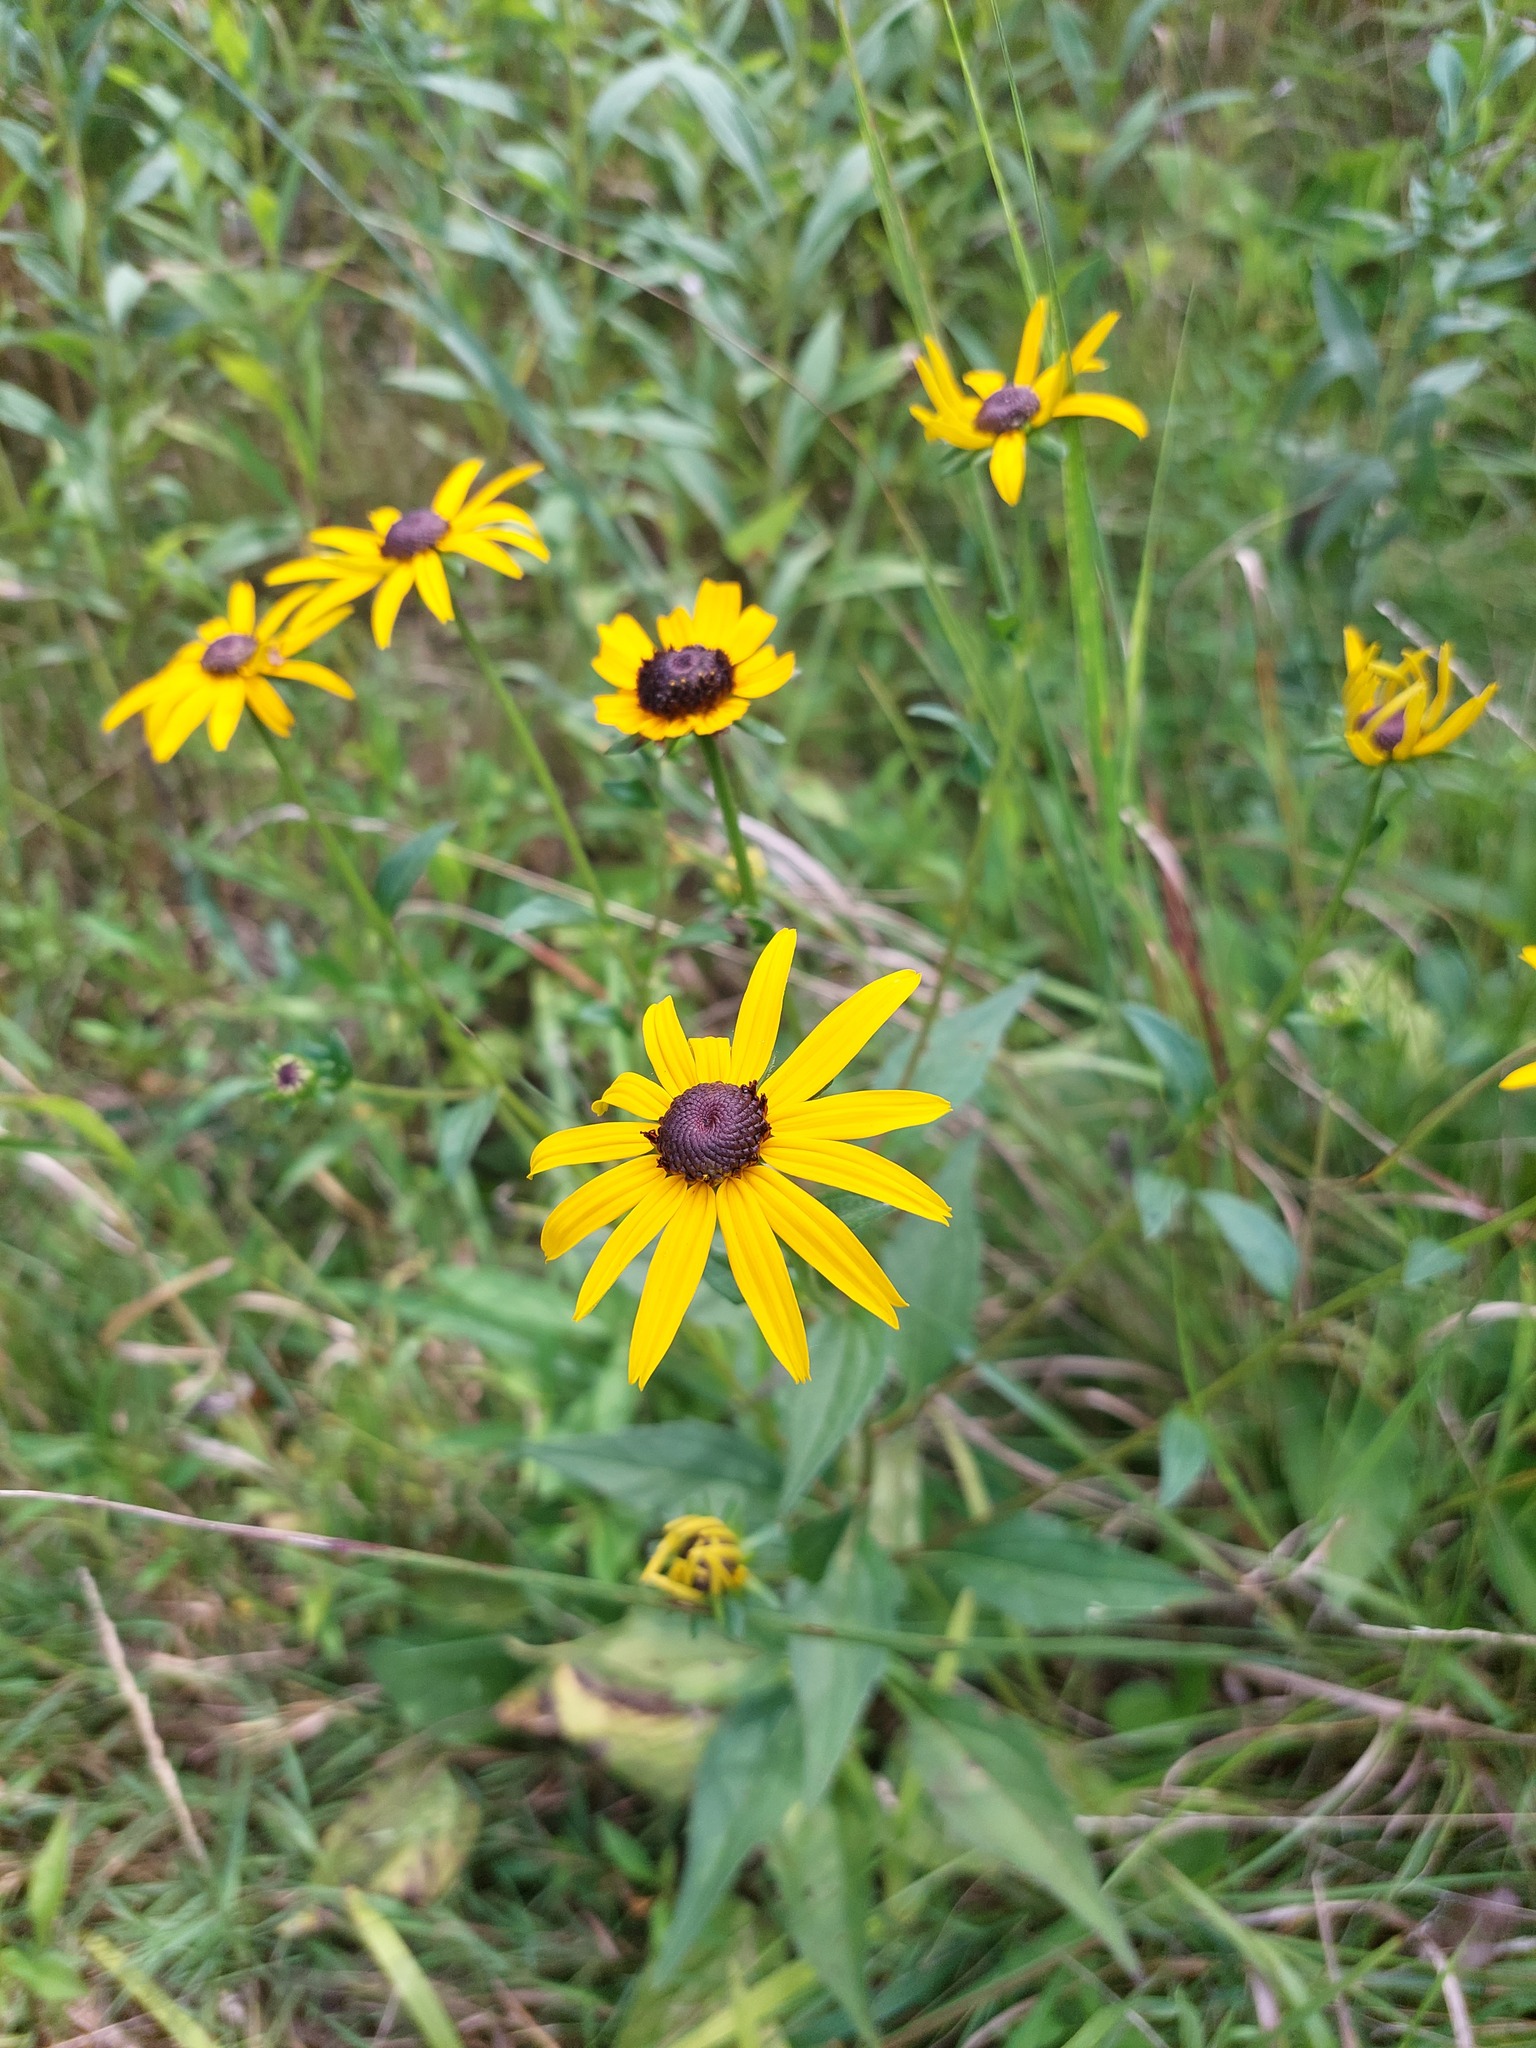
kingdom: Plantae
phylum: Tracheophyta
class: Magnoliopsida
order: Asterales
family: Asteraceae
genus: Rudbeckia
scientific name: Rudbeckia hirta
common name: Black-eyed-susan
